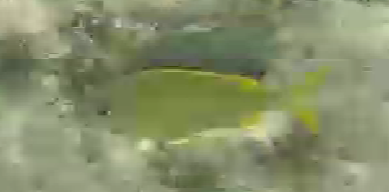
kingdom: Animalia
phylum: Chordata
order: Perciformes
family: Haemulidae
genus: Haemulon
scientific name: Haemulon flavolineatum
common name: French grunt
